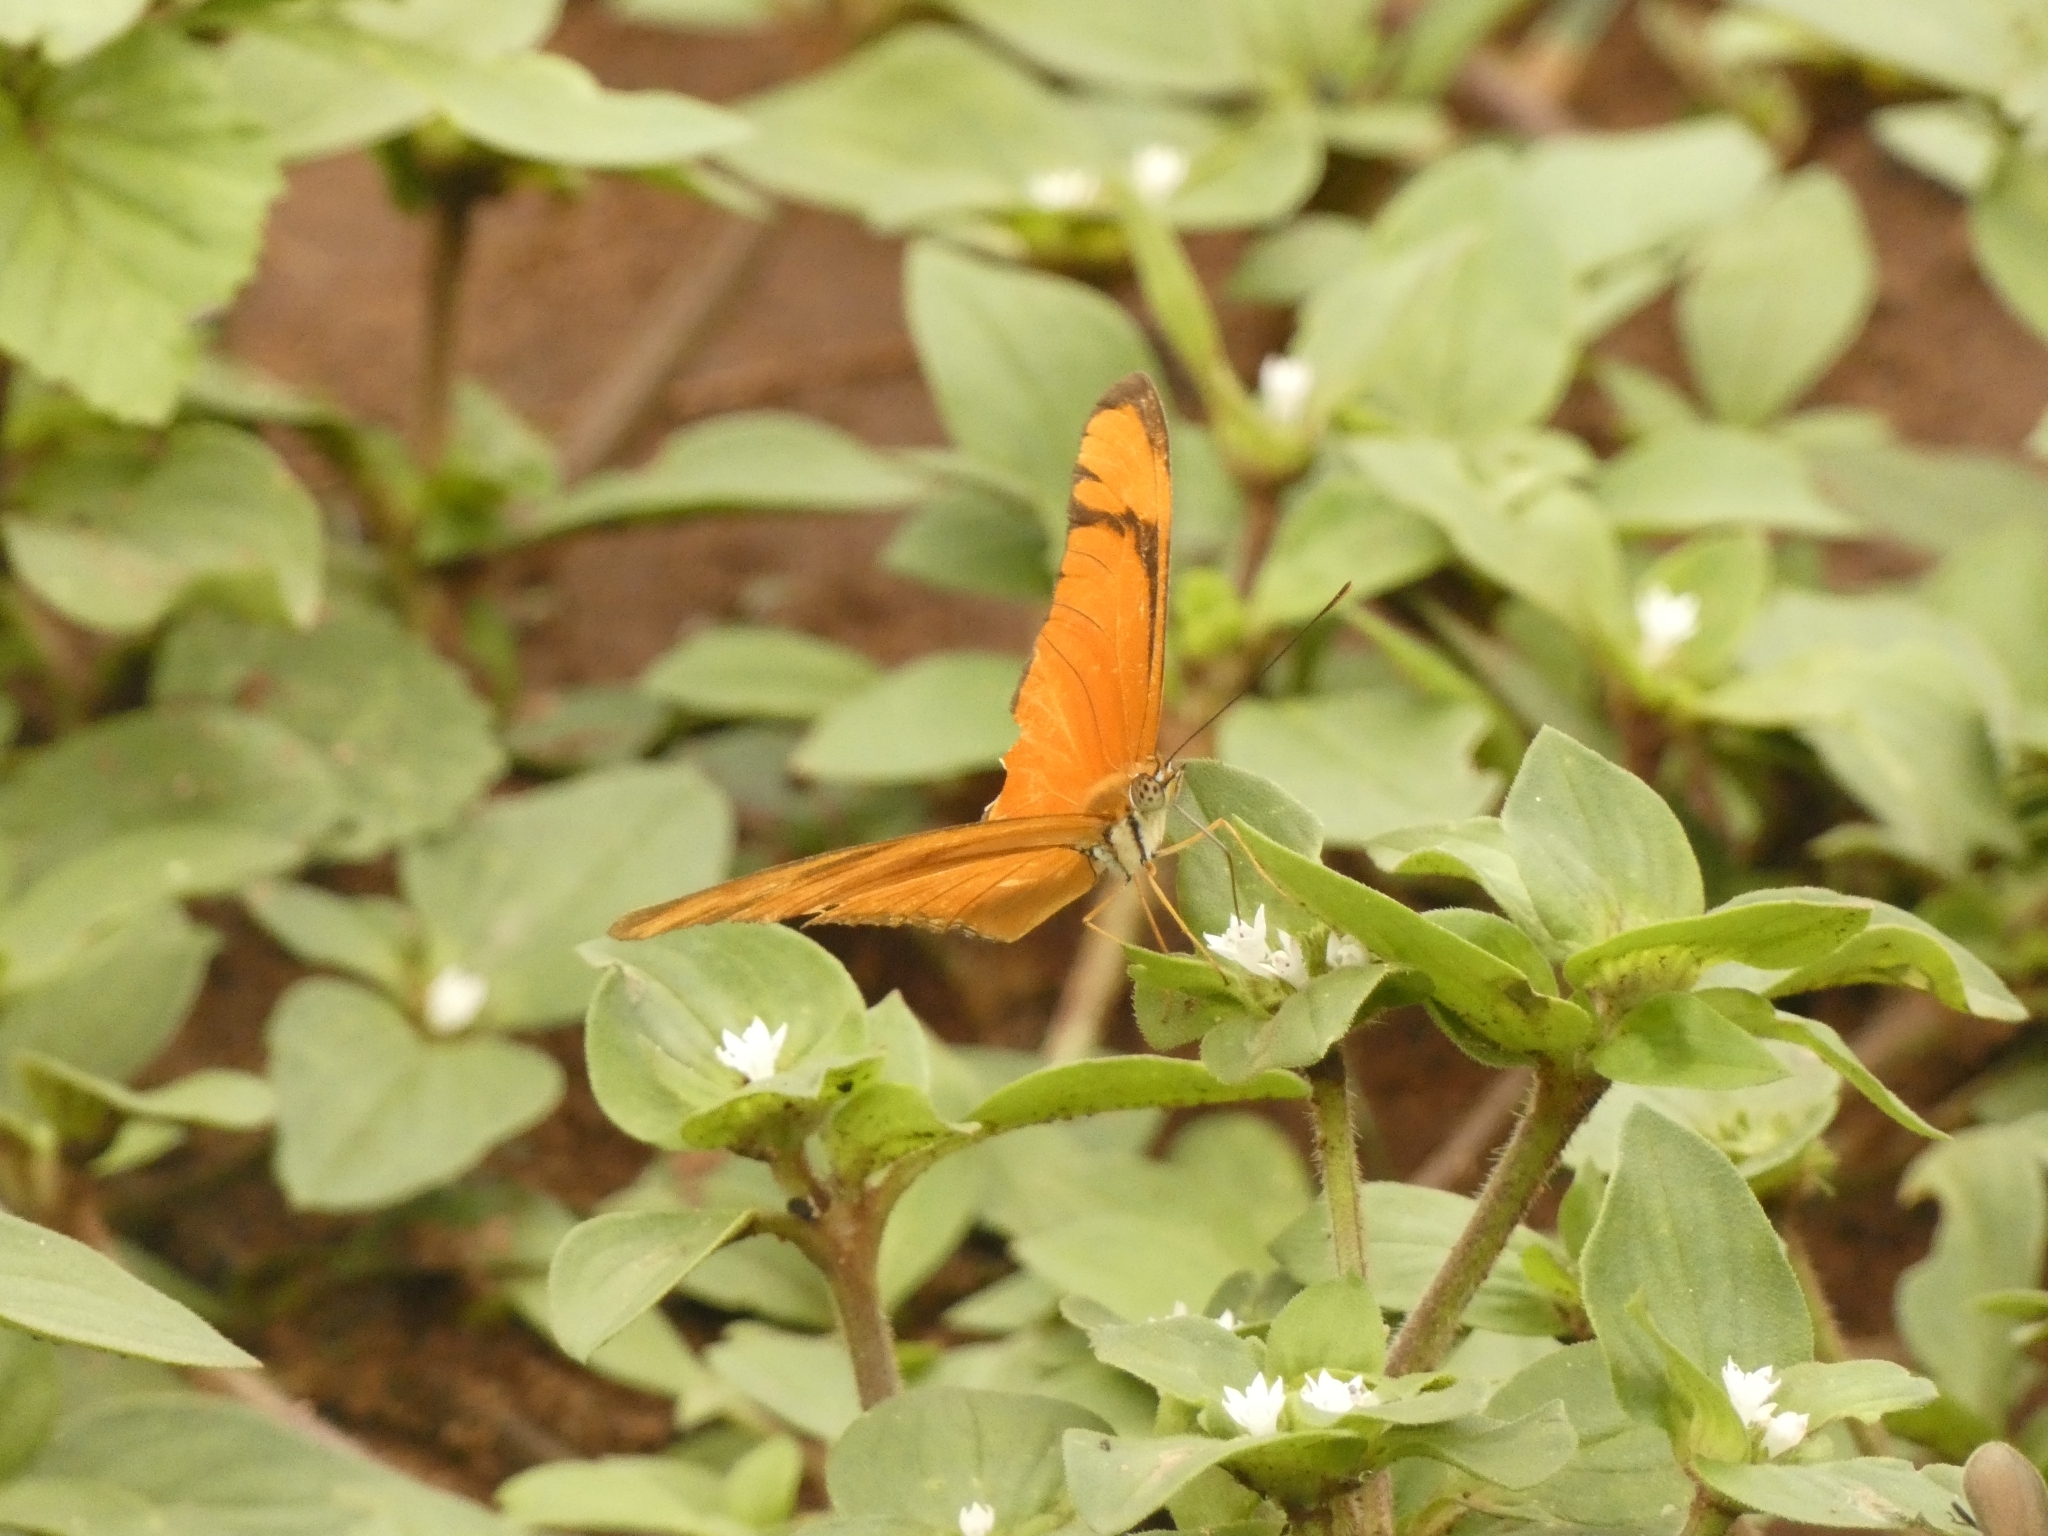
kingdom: Animalia
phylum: Arthropoda
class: Insecta
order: Lepidoptera
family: Nymphalidae
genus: Dryas
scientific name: Dryas iulia
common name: Flambeau
